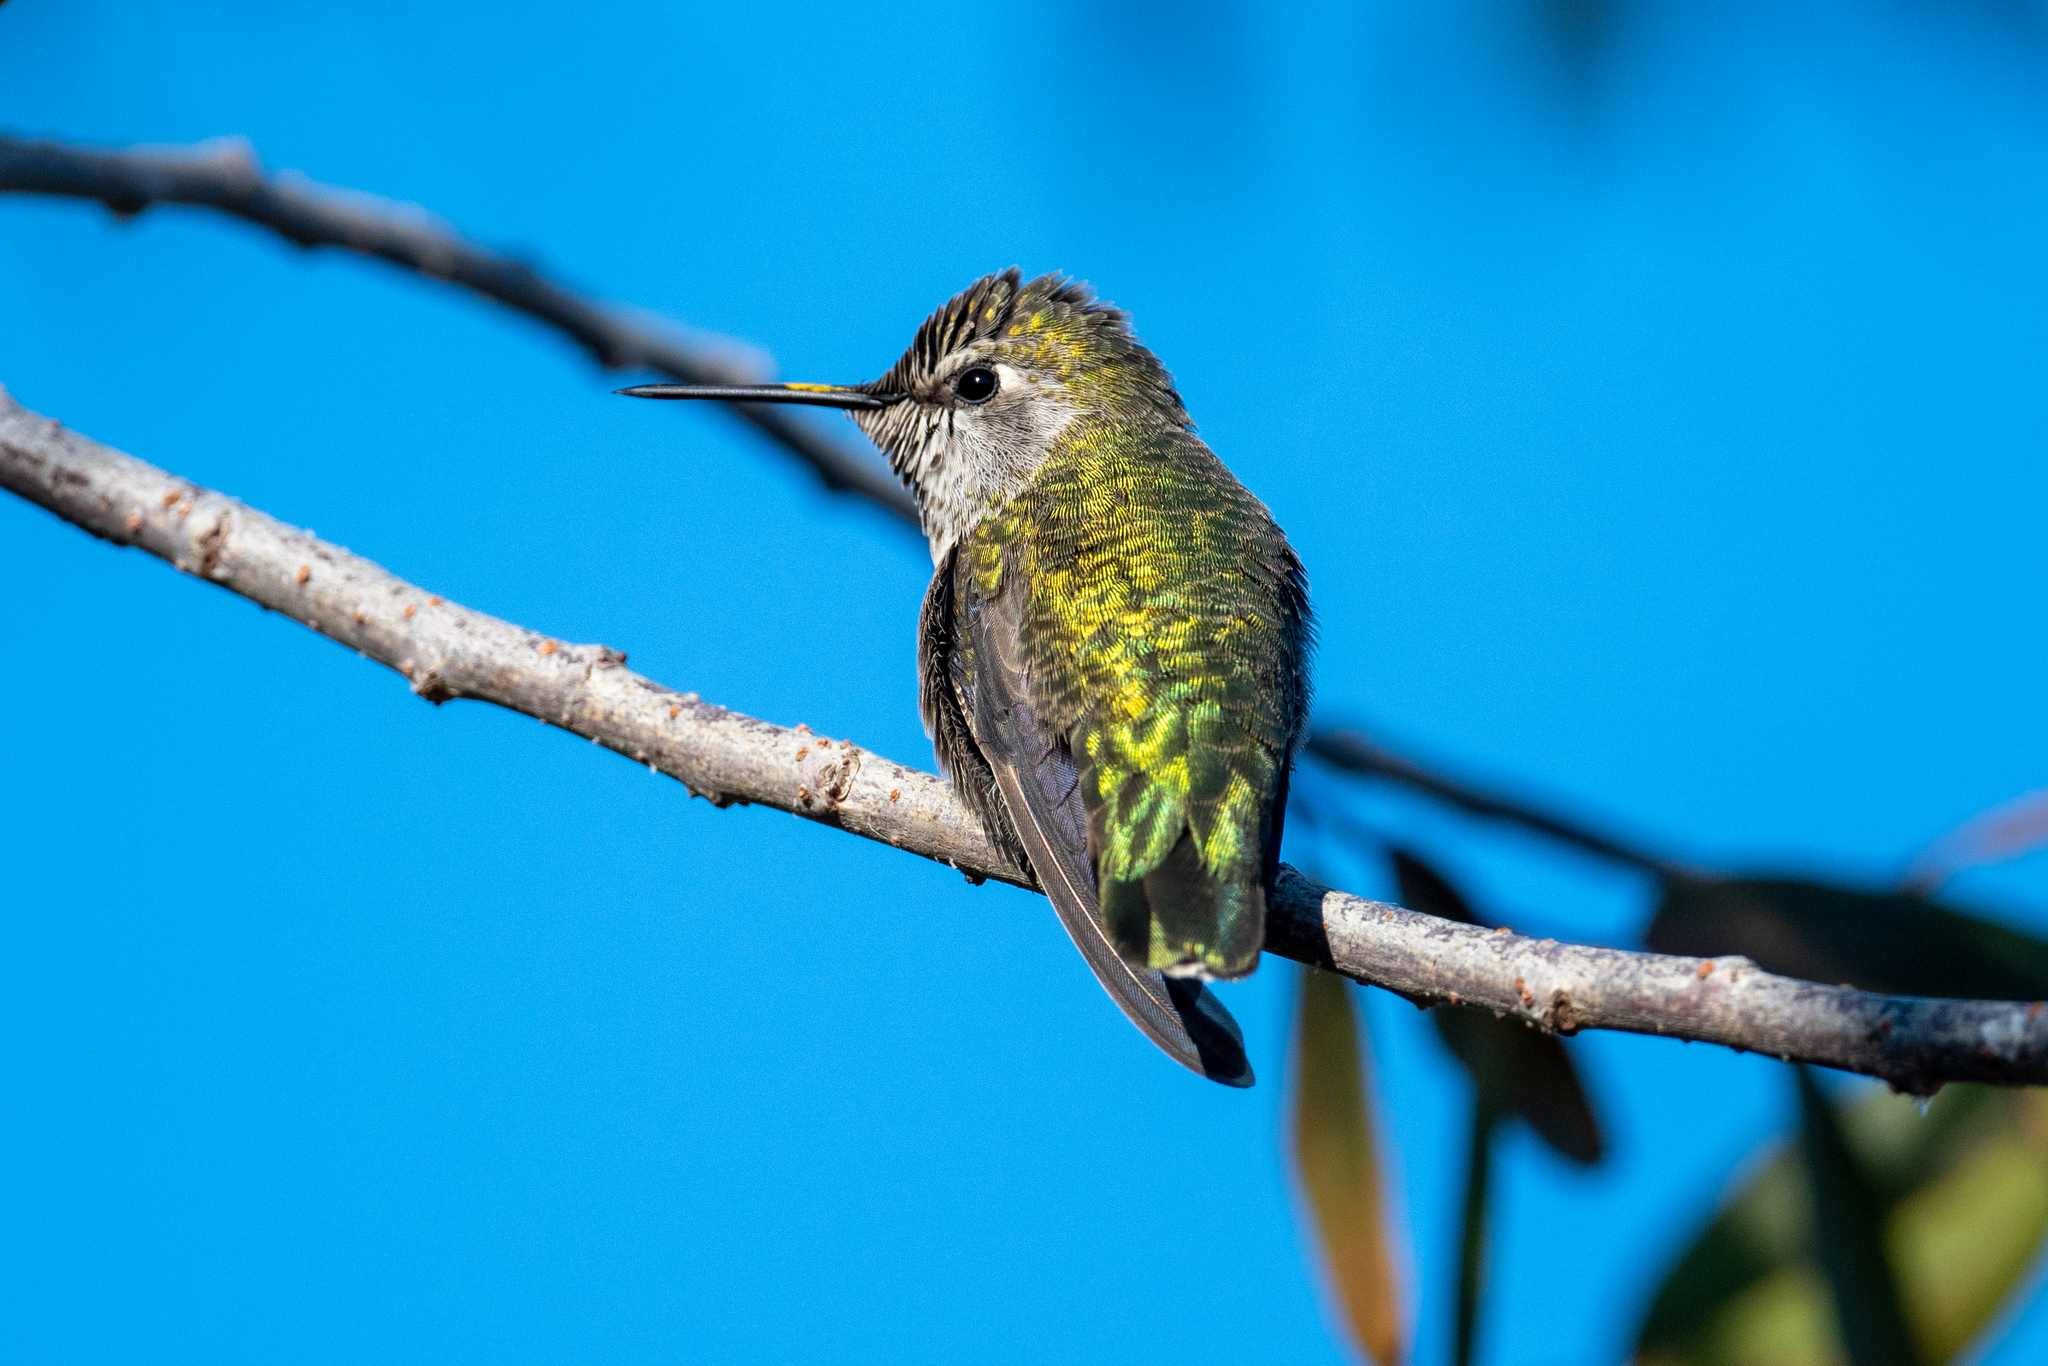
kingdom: Animalia
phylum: Chordata
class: Aves
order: Apodiformes
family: Trochilidae
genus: Calypte
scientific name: Calypte anna
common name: Anna's hummingbird
